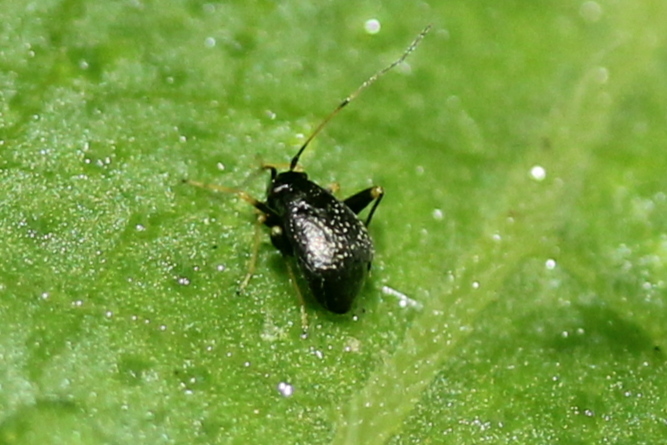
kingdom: Animalia
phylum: Arthropoda
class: Insecta
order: Hemiptera
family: Miridae
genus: Microtechnites
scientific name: Microtechnites bractatus
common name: Garden fleahopper
